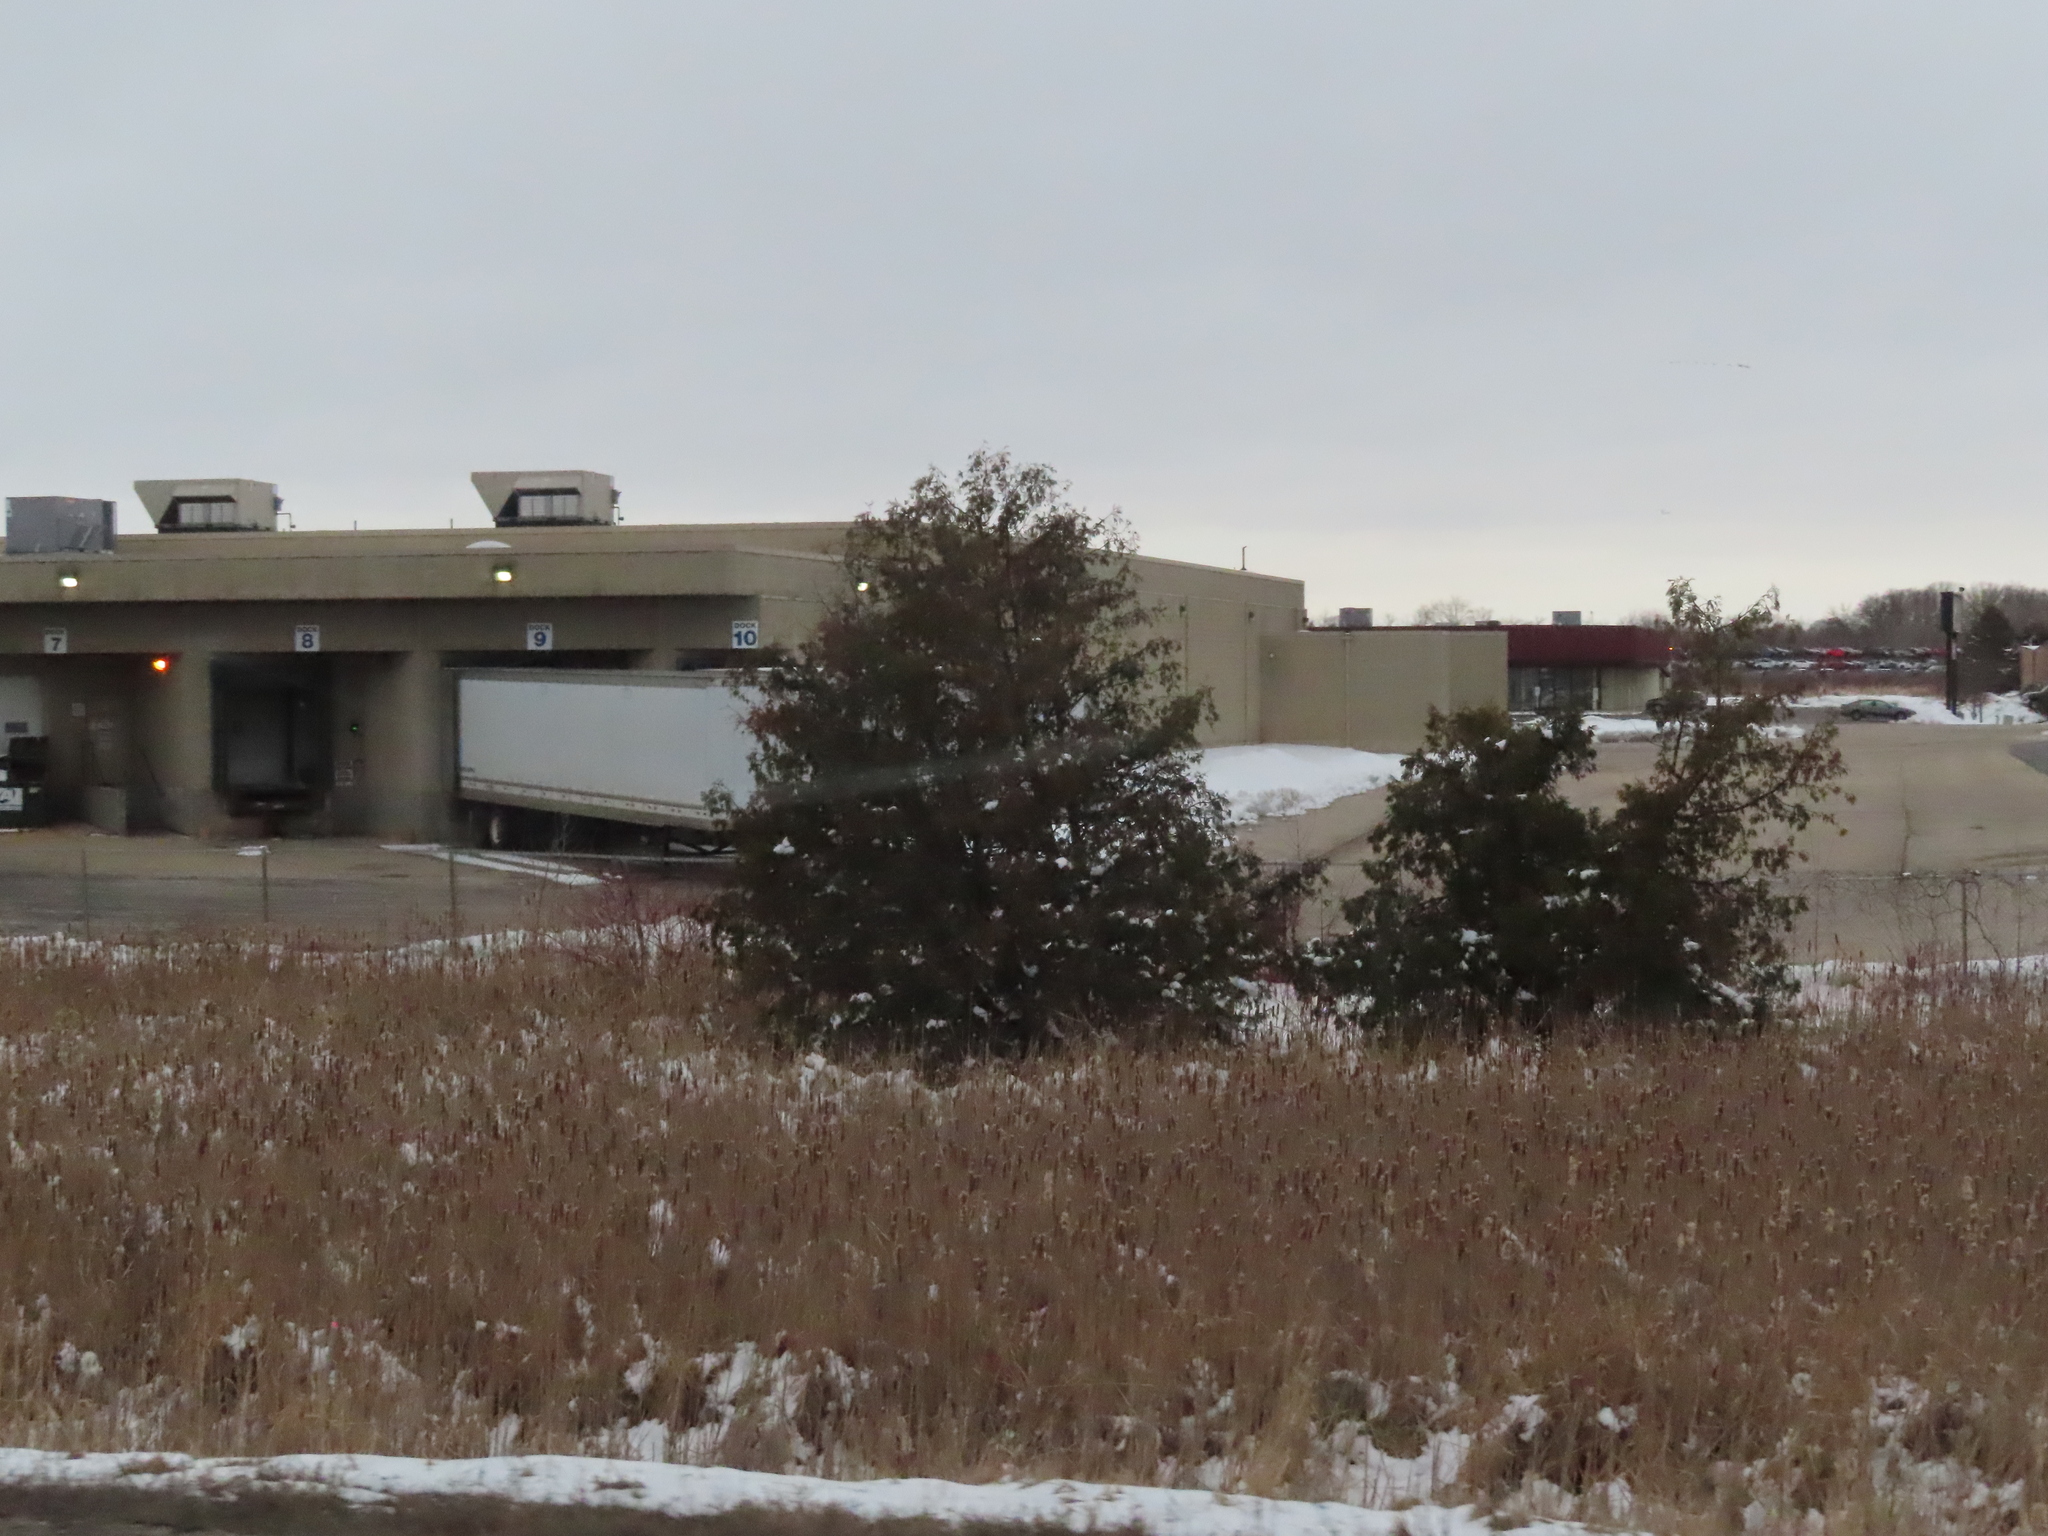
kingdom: Plantae
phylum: Tracheophyta
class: Pinopsida
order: Pinales
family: Cupressaceae
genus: Juniperus
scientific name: Juniperus virginiana
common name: Red juniper
